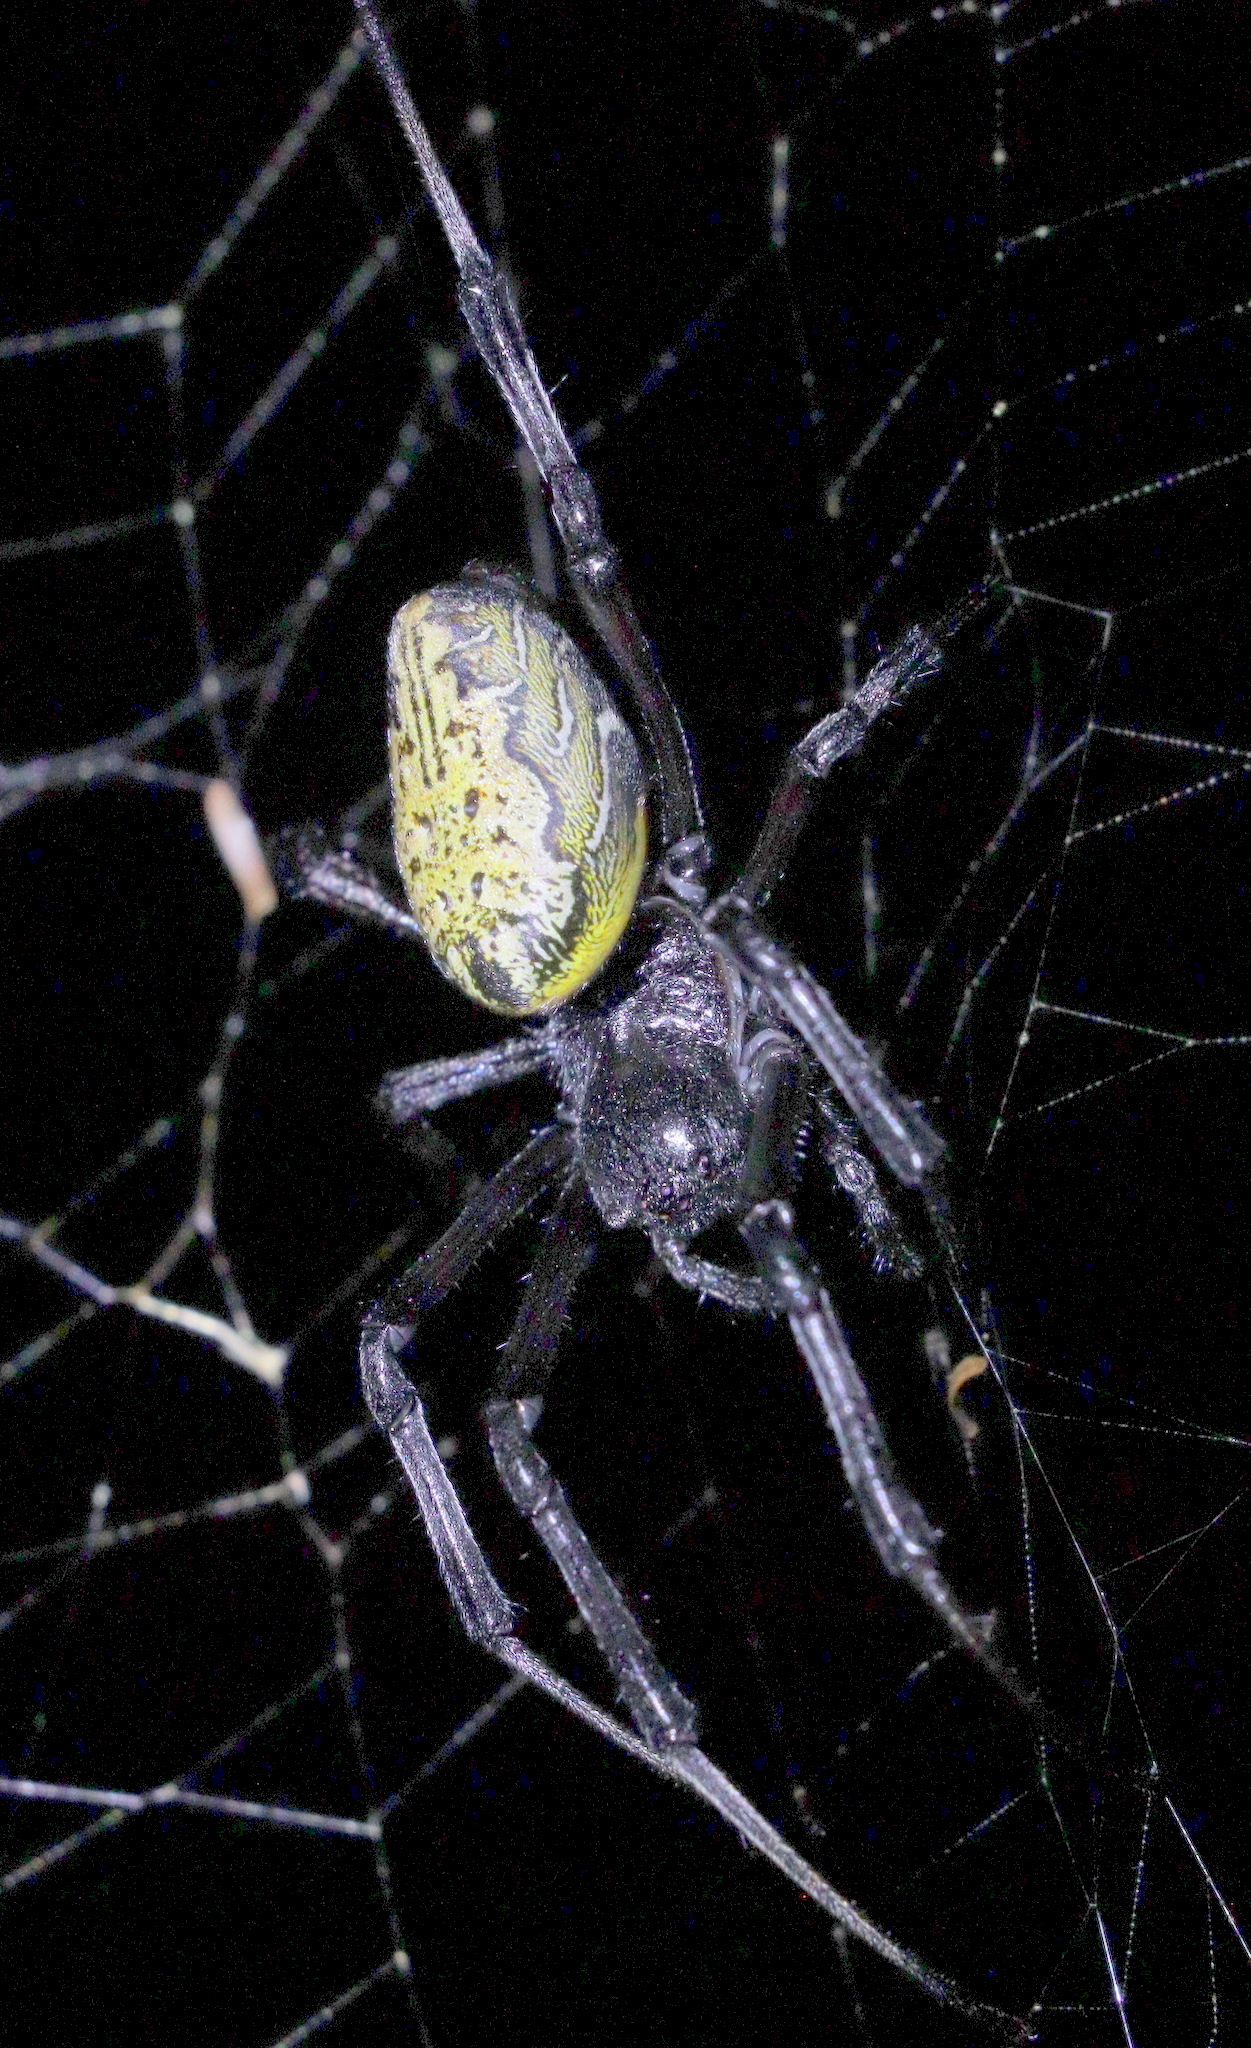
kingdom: Animalia
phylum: Arthropoda
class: Arachnida
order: Araneae
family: Araneidae
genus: Nephilingis
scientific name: Nephilingis cruentata
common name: African hermit spider
